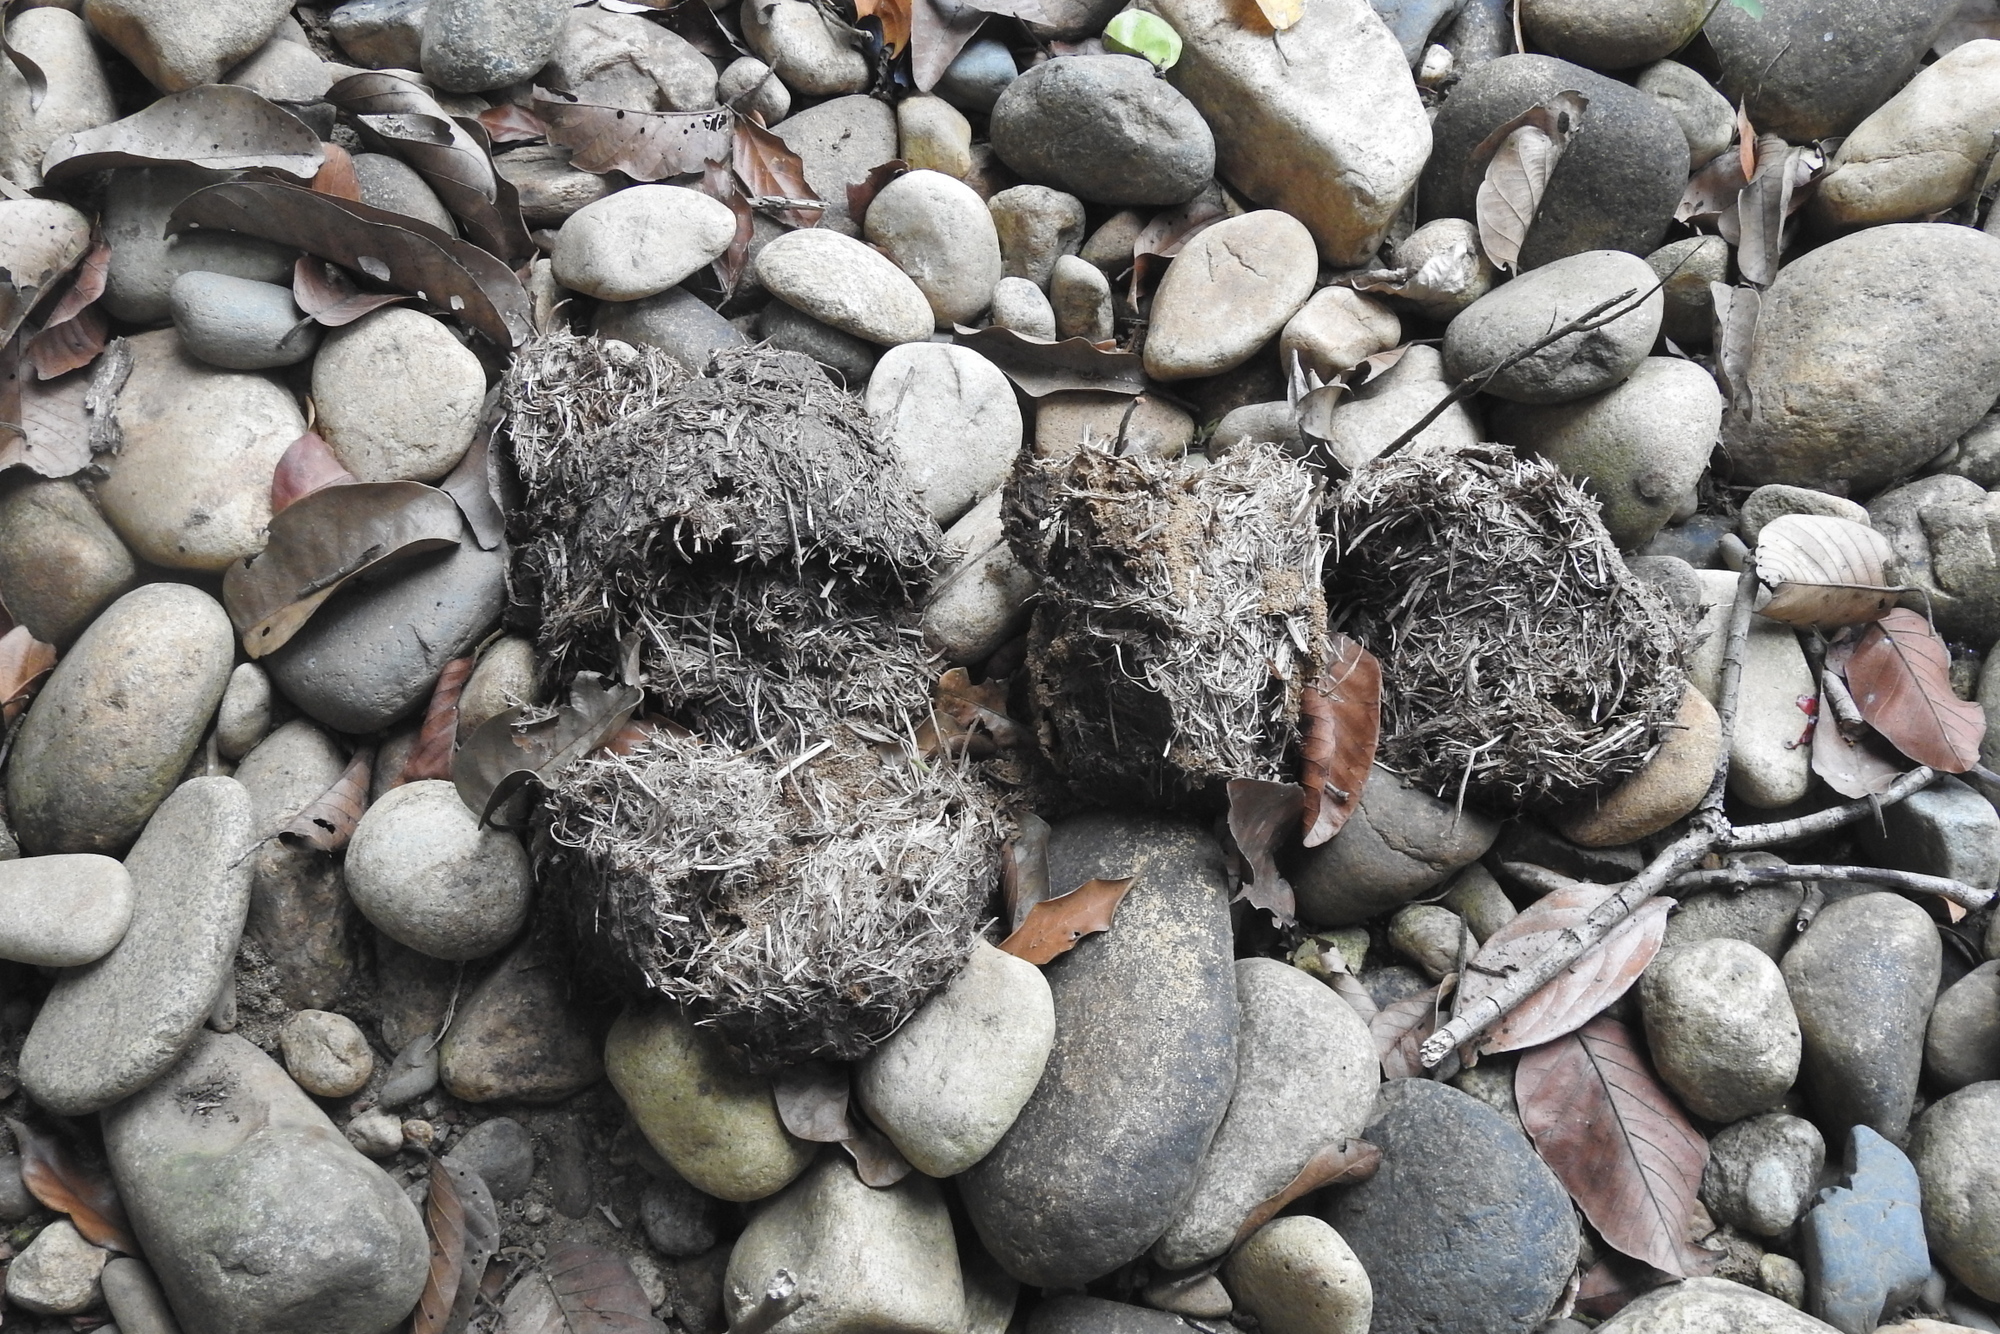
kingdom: Animalia
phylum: Chordata
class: Mammalia
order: Proboscidea
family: Elephantidae
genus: Elephas
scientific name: Elephas maximus
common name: Asian elephant
